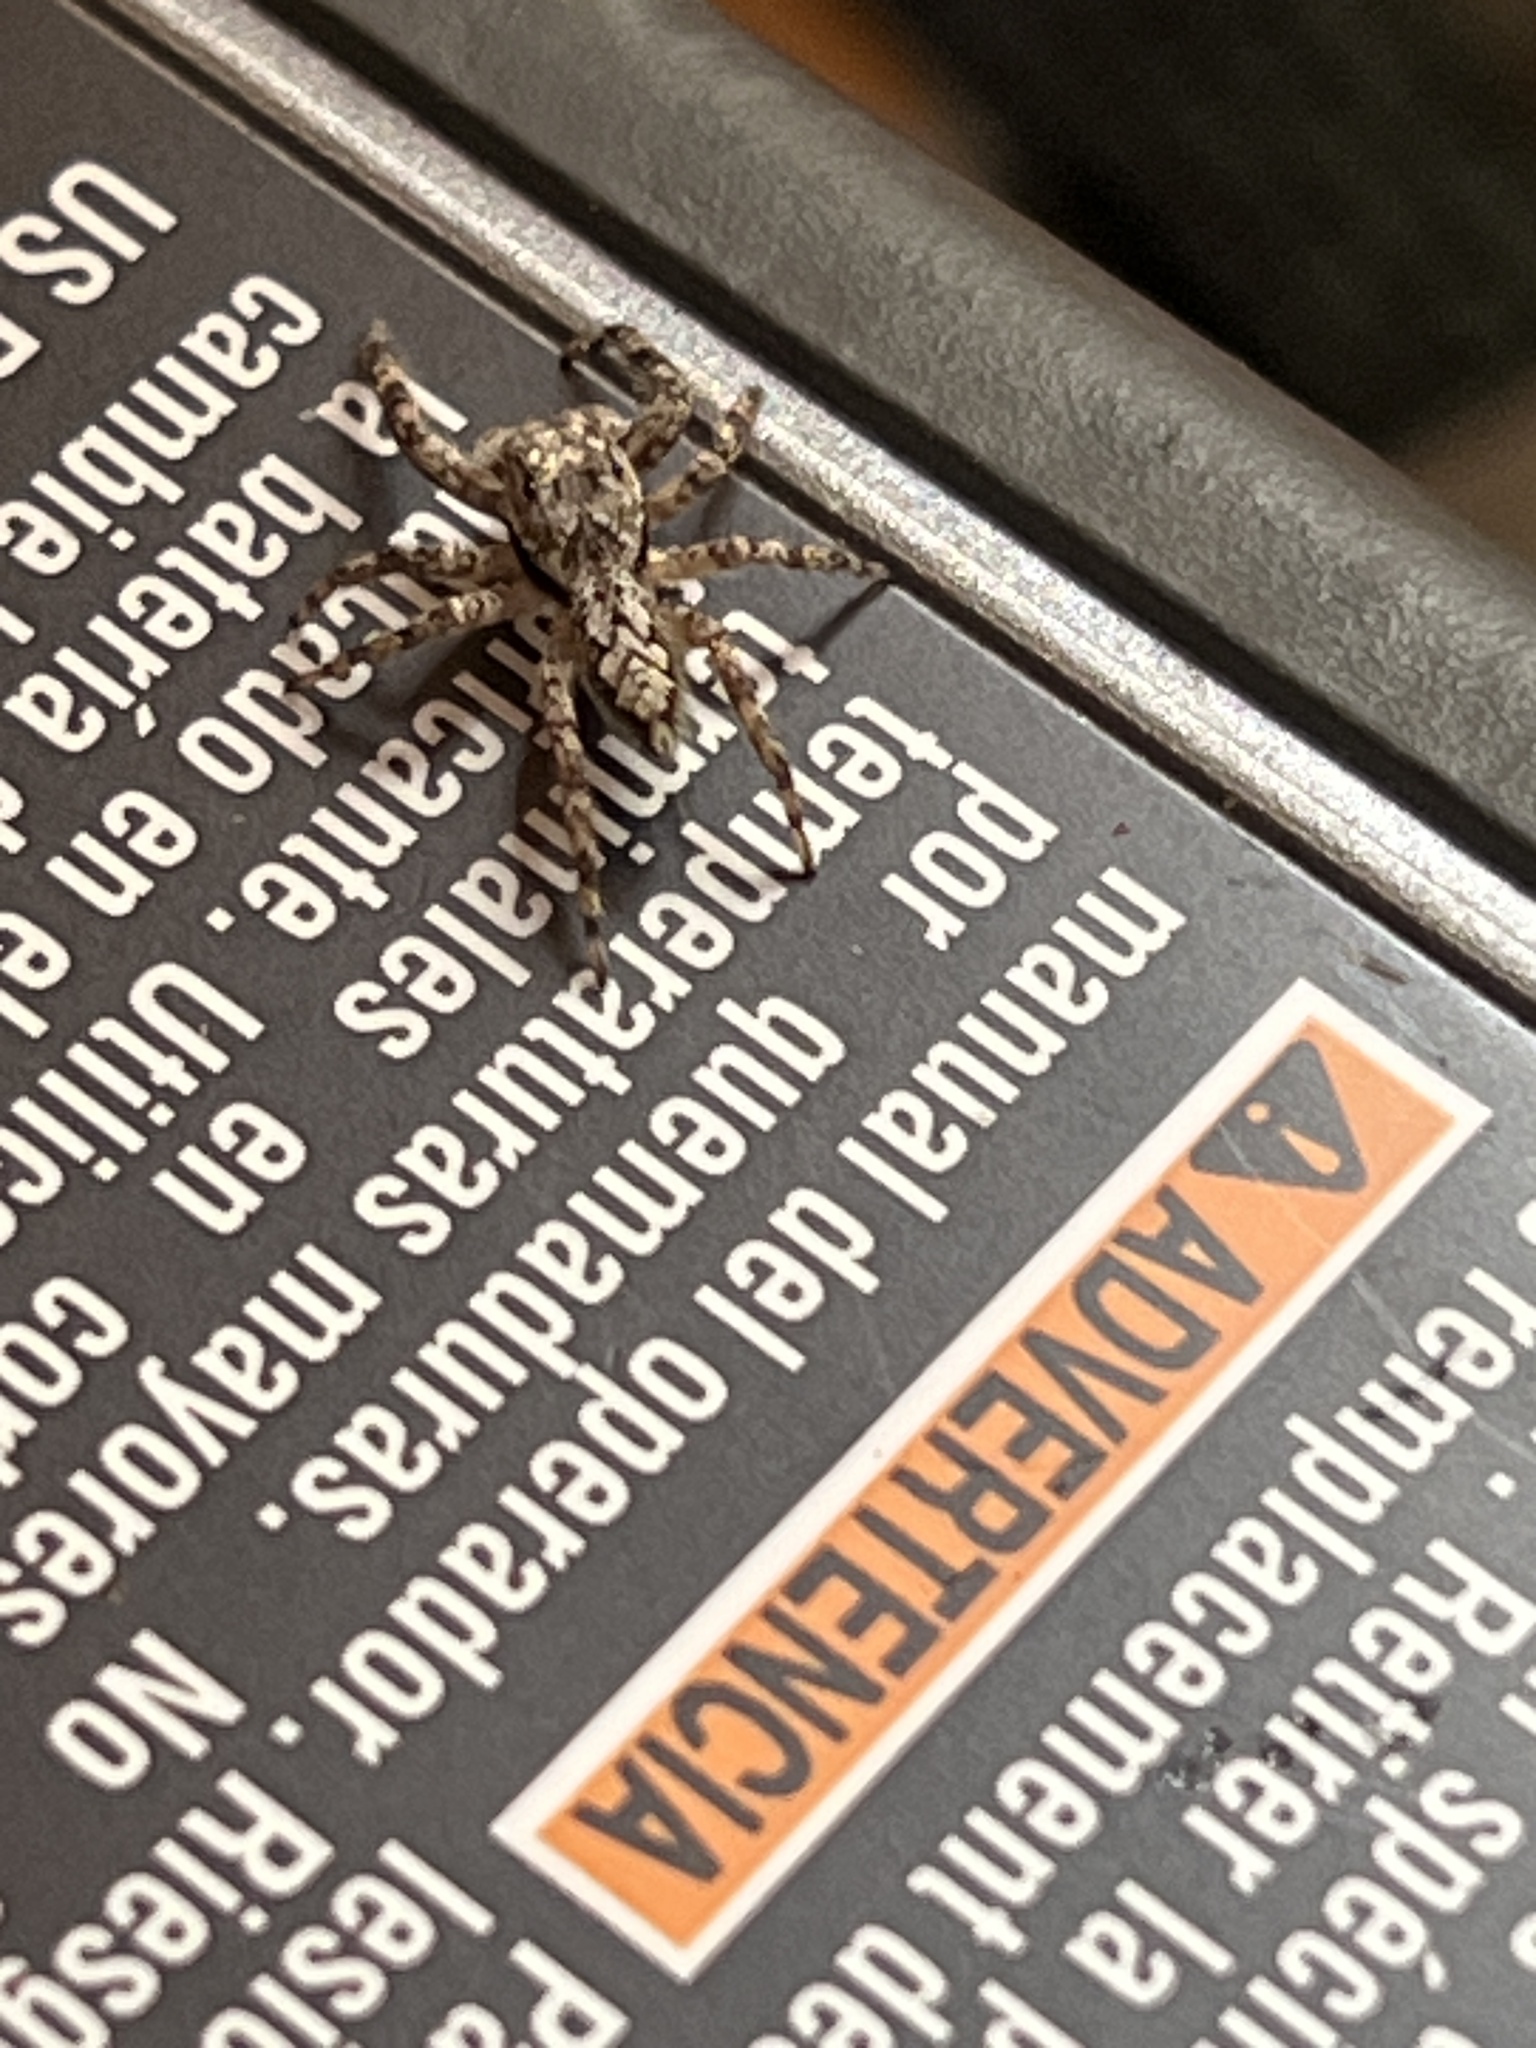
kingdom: Animalia
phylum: Arthropoda
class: Arachnida
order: Araneae
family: Salticidae
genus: Platycryptus
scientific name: Platycryptus undatus
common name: Tan jumping spider
